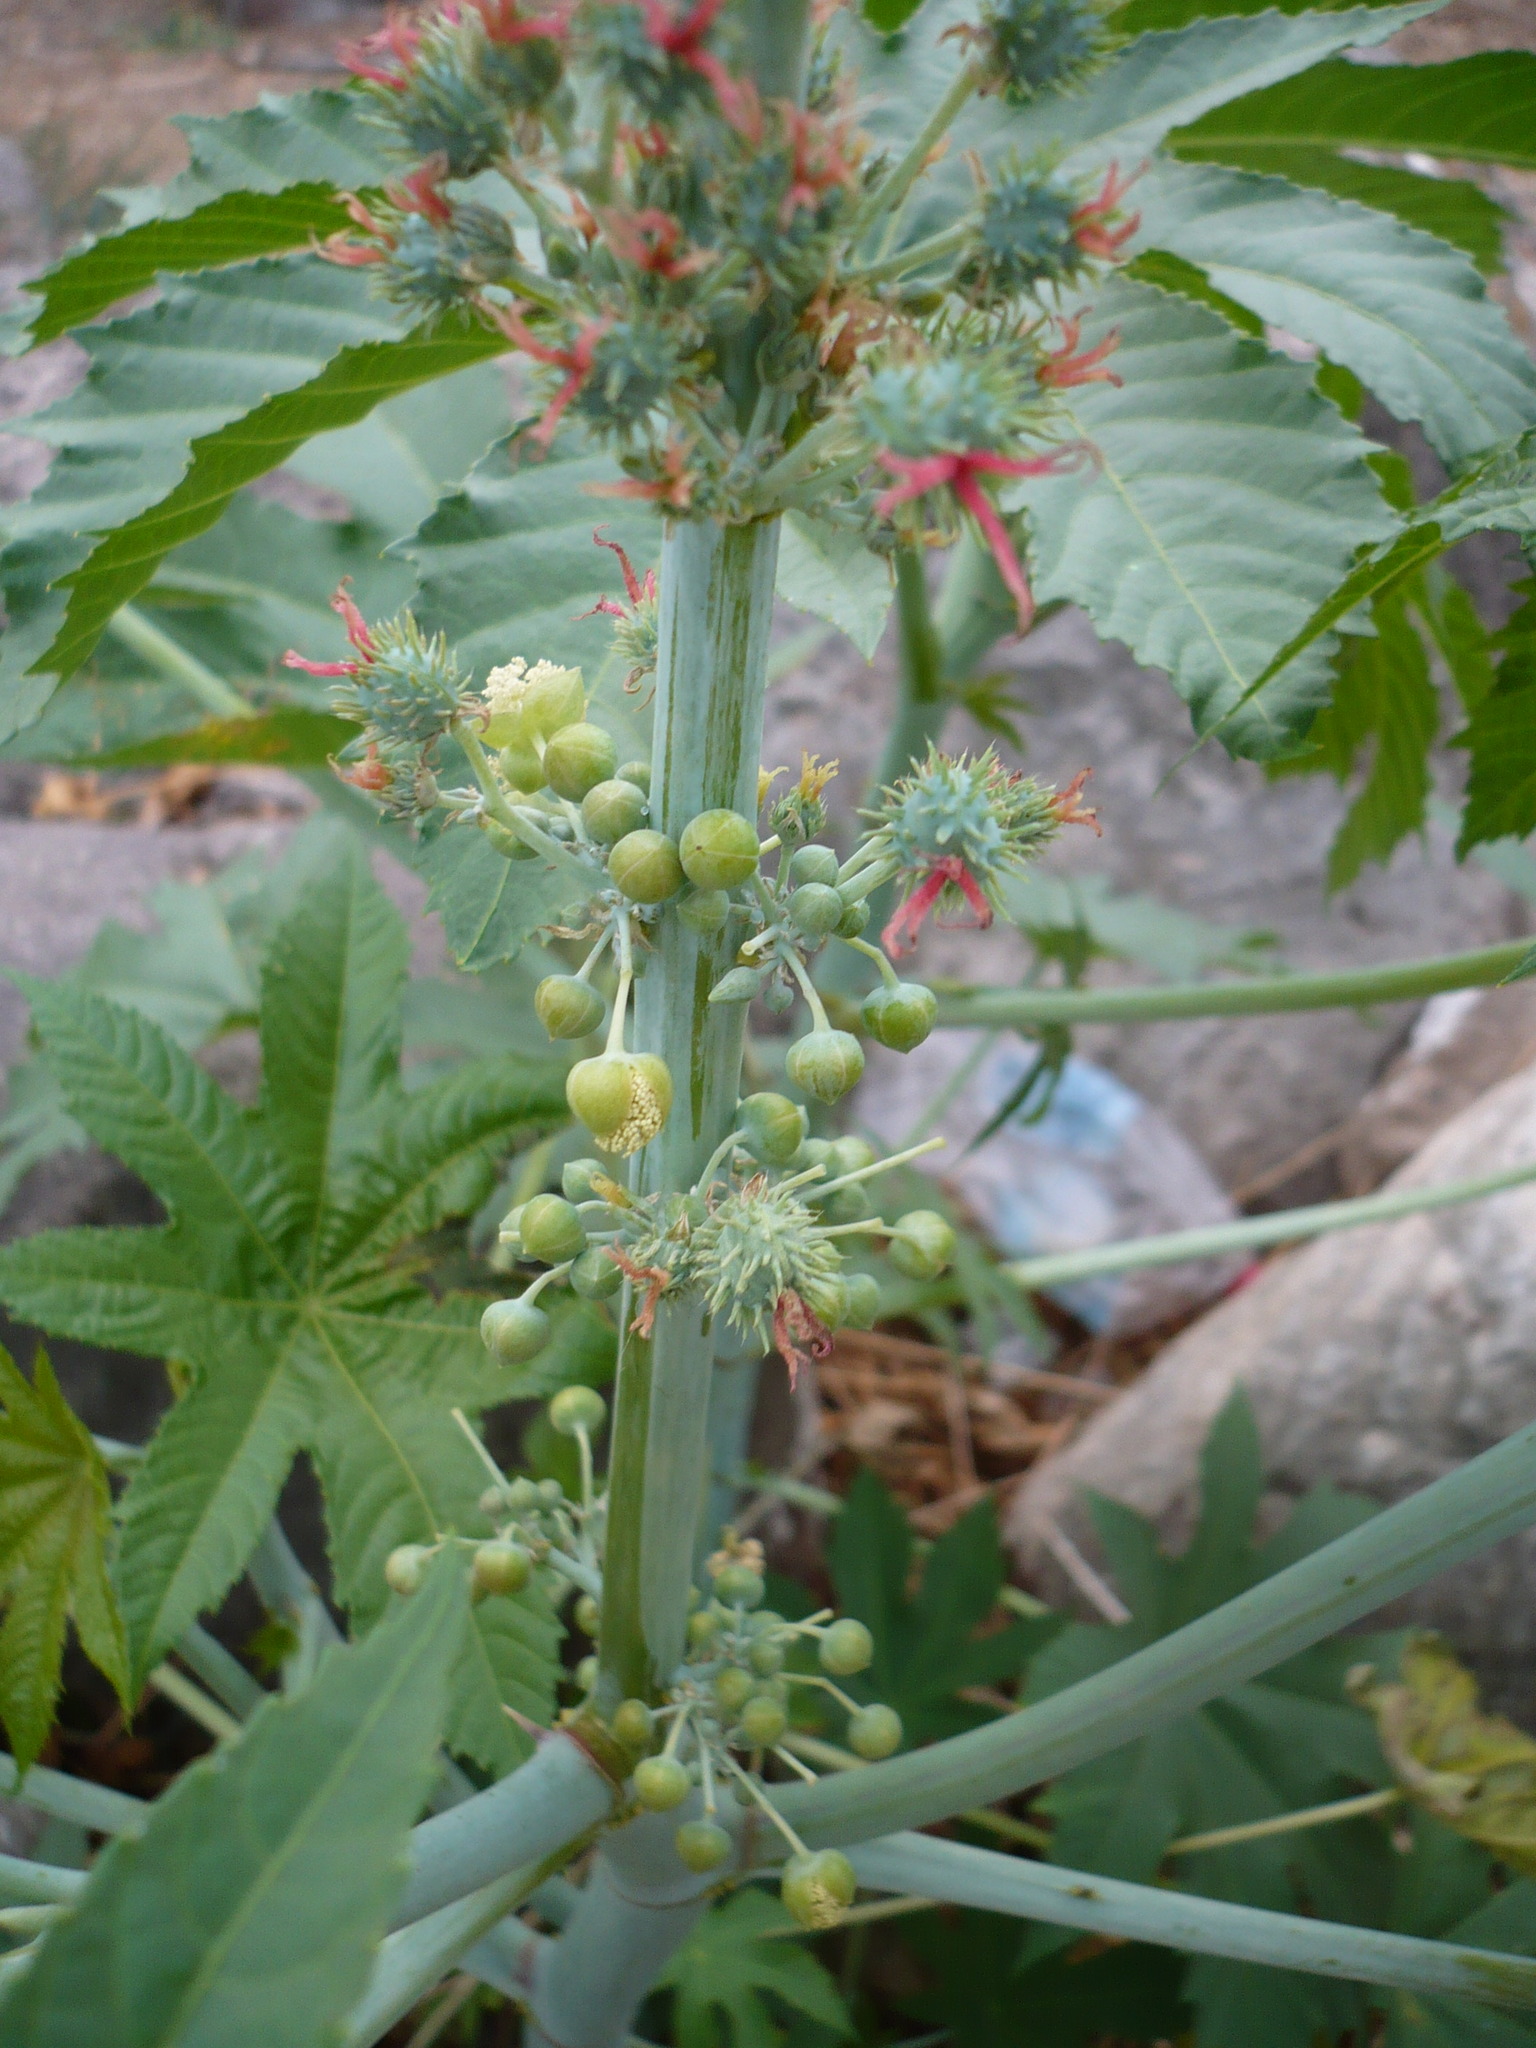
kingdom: Plantae
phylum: Tracheophyta
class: Magnoliopsida
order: Malpighiales
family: Euphorbiaceae
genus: Ricinus
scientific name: Ricinus communis
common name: Castor-oil-plant
